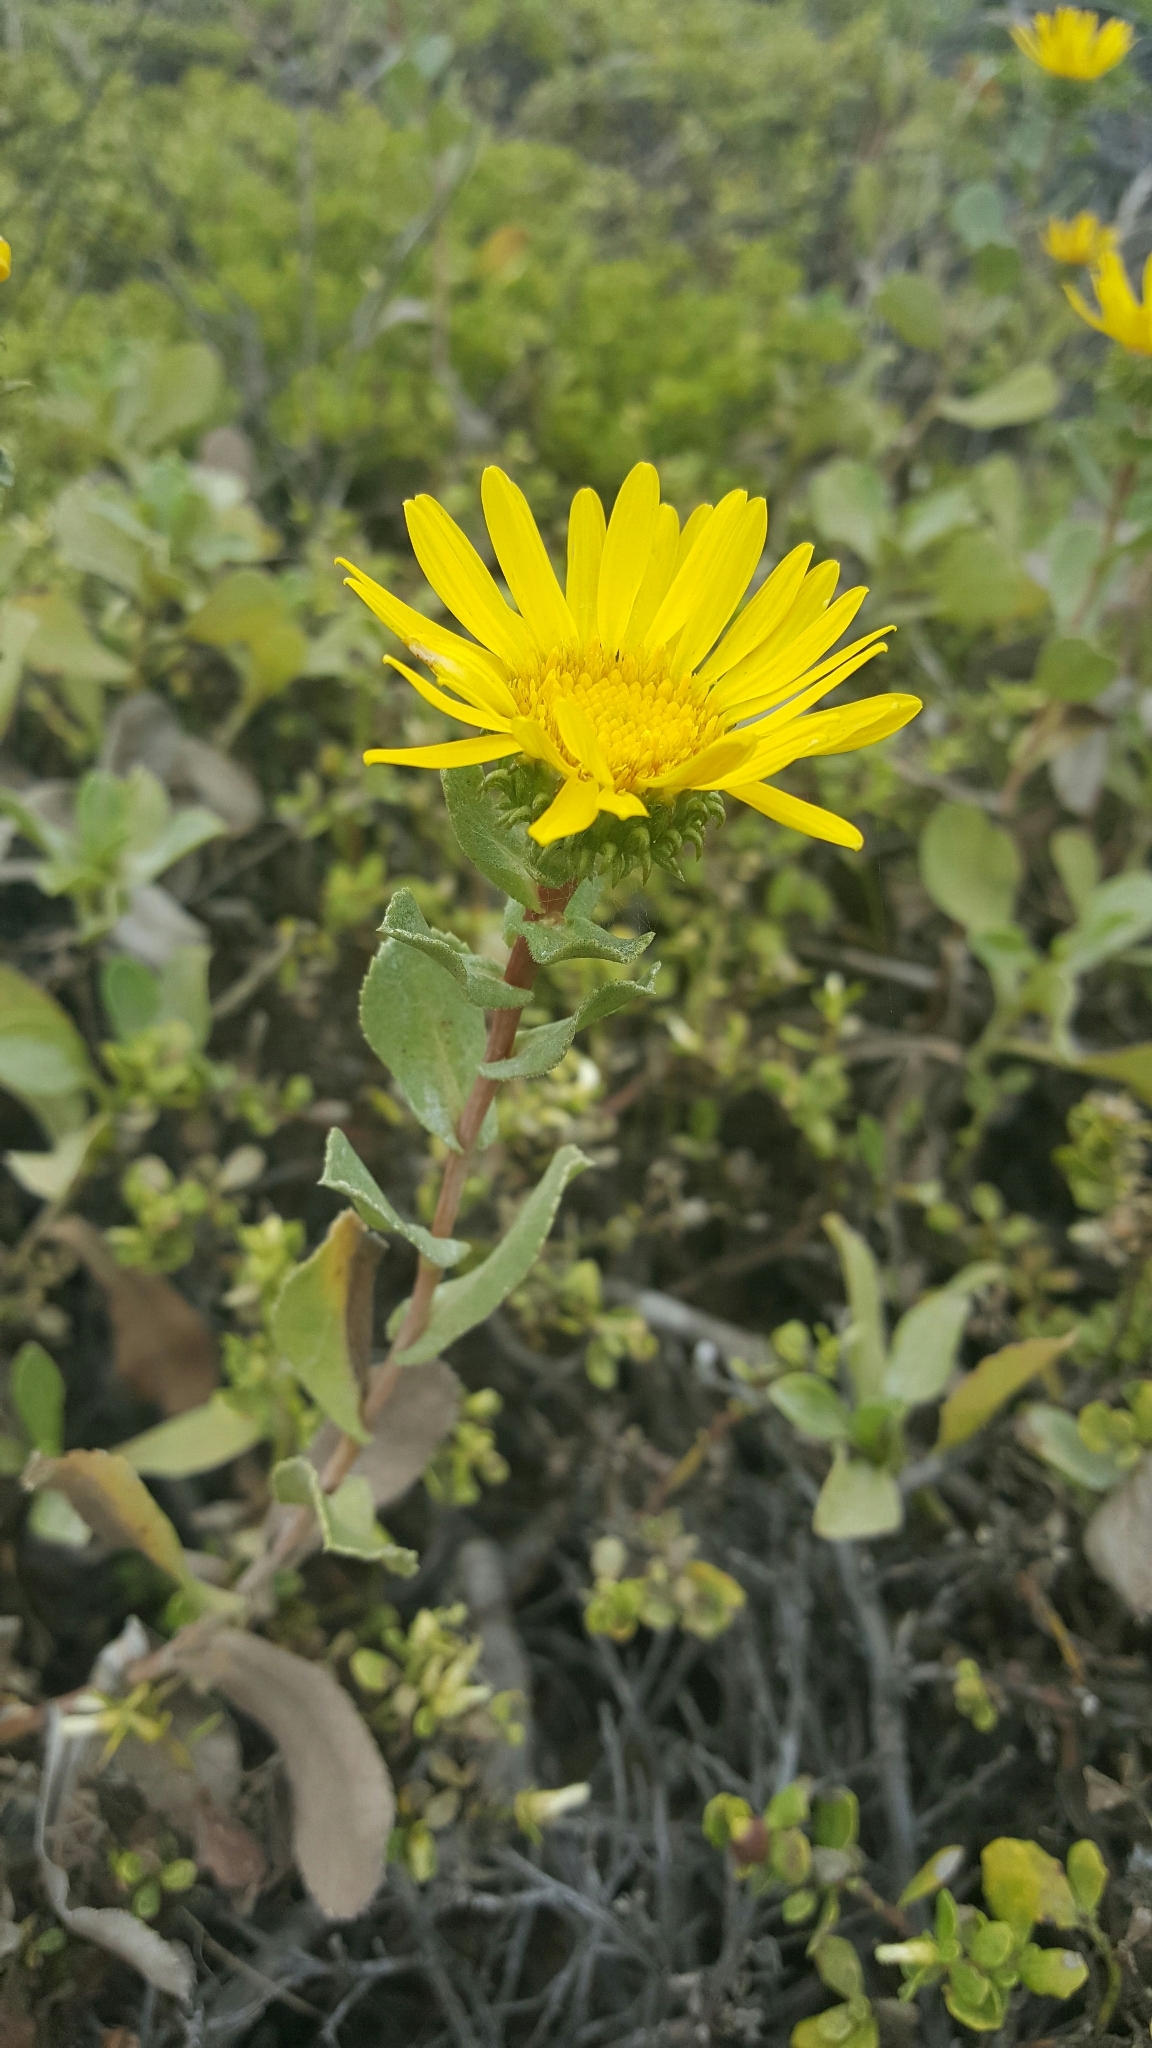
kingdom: Plantae
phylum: Tracheophyta
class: Magnoliopsida
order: Asterales
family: Asteraceae
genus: Grindelia
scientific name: Grindelia hirsutula
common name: Hairy gumweed
